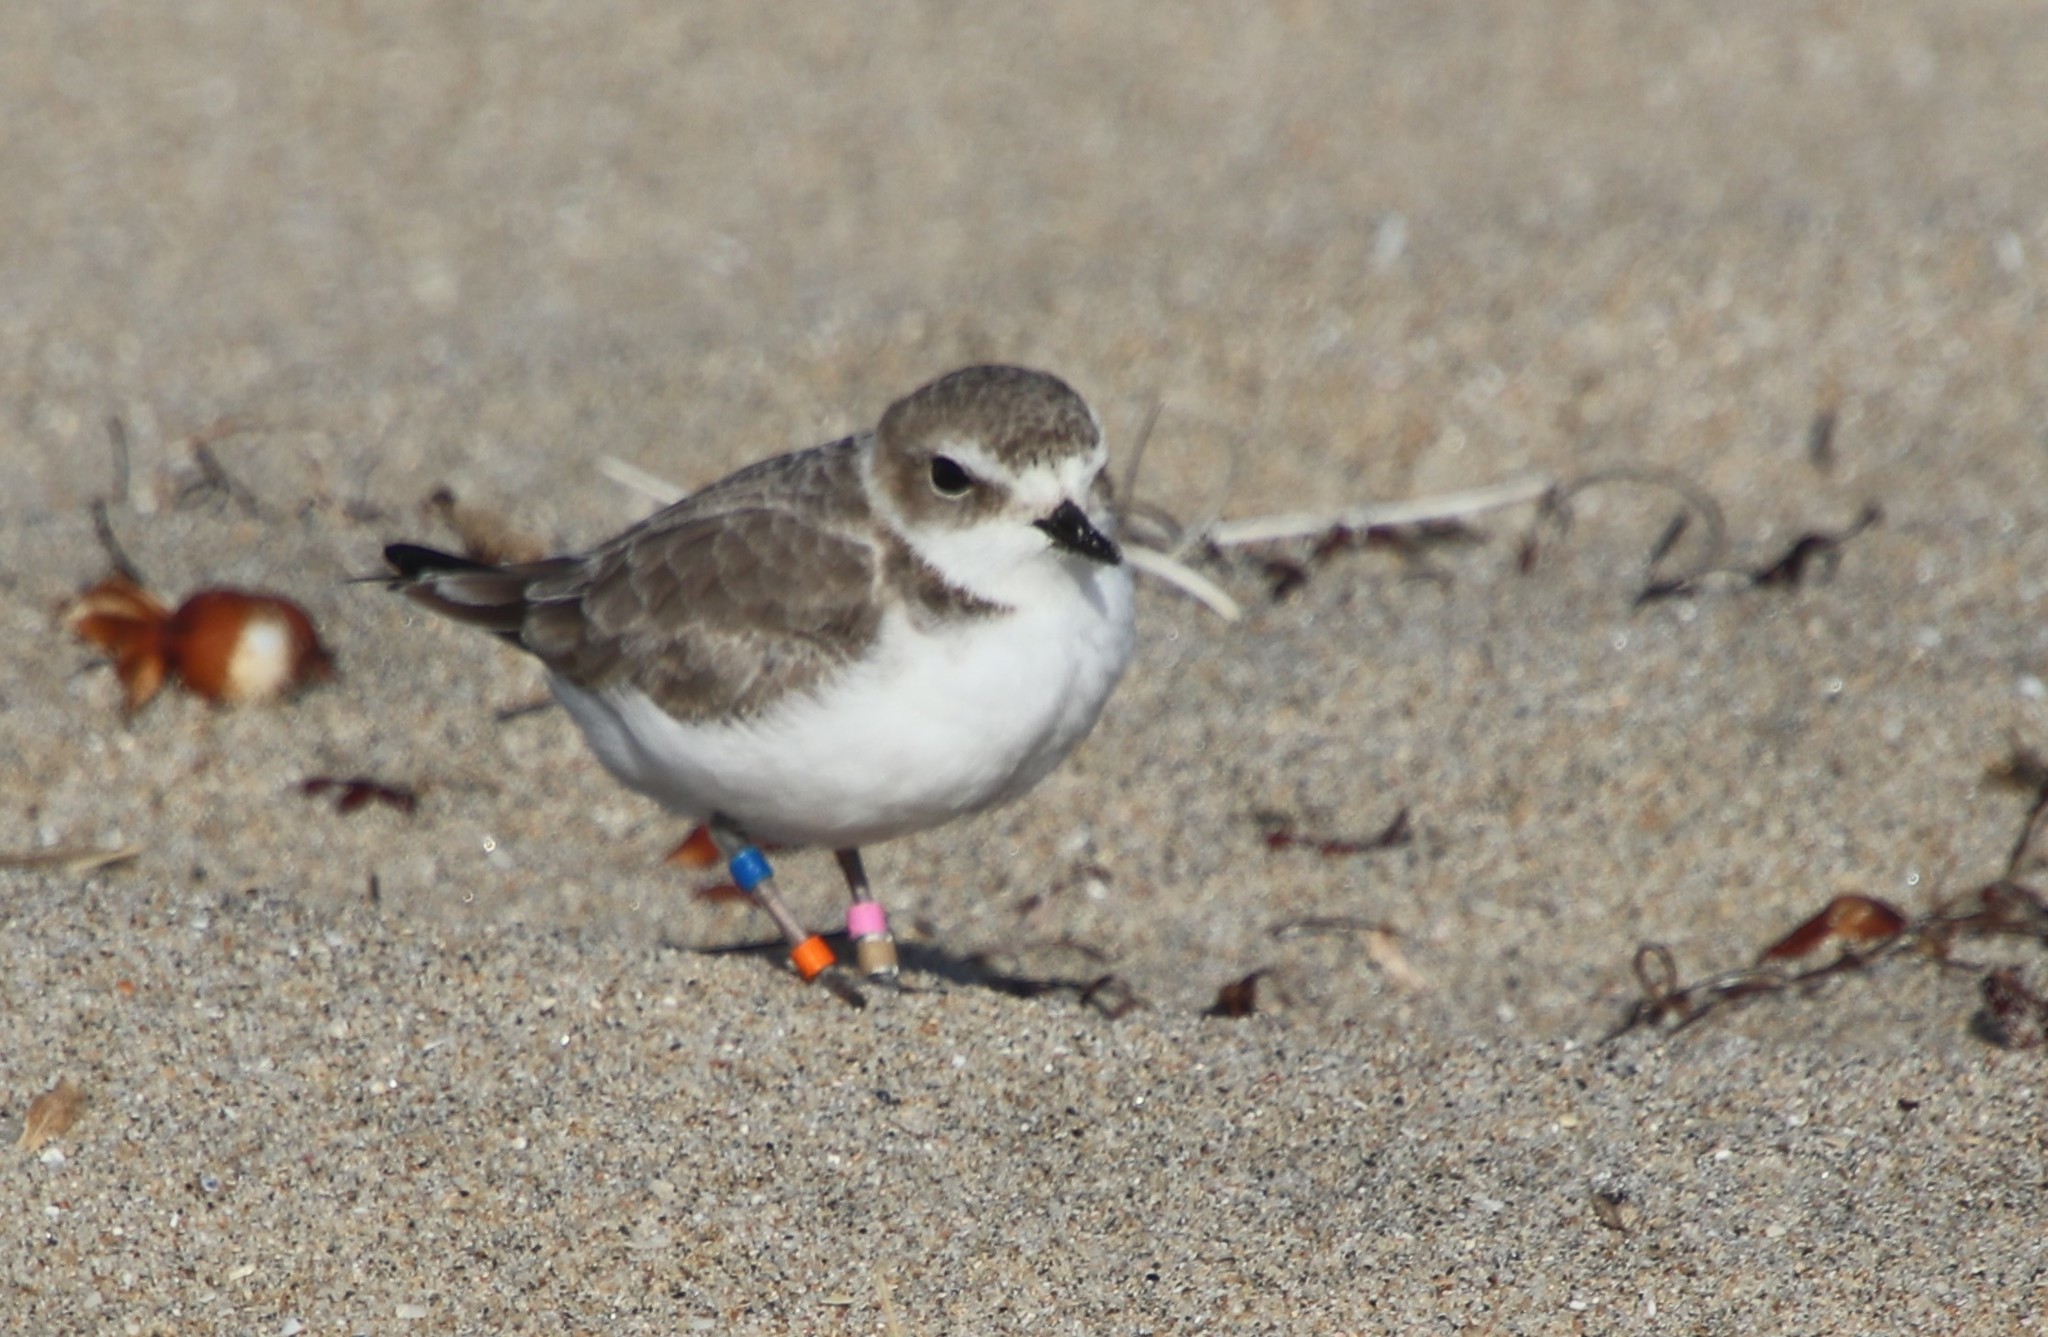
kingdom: Animalia
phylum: Chordata
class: Aves
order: Charadriiformes
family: Charadriidae
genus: Anarhynchus
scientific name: Anarhynchus
